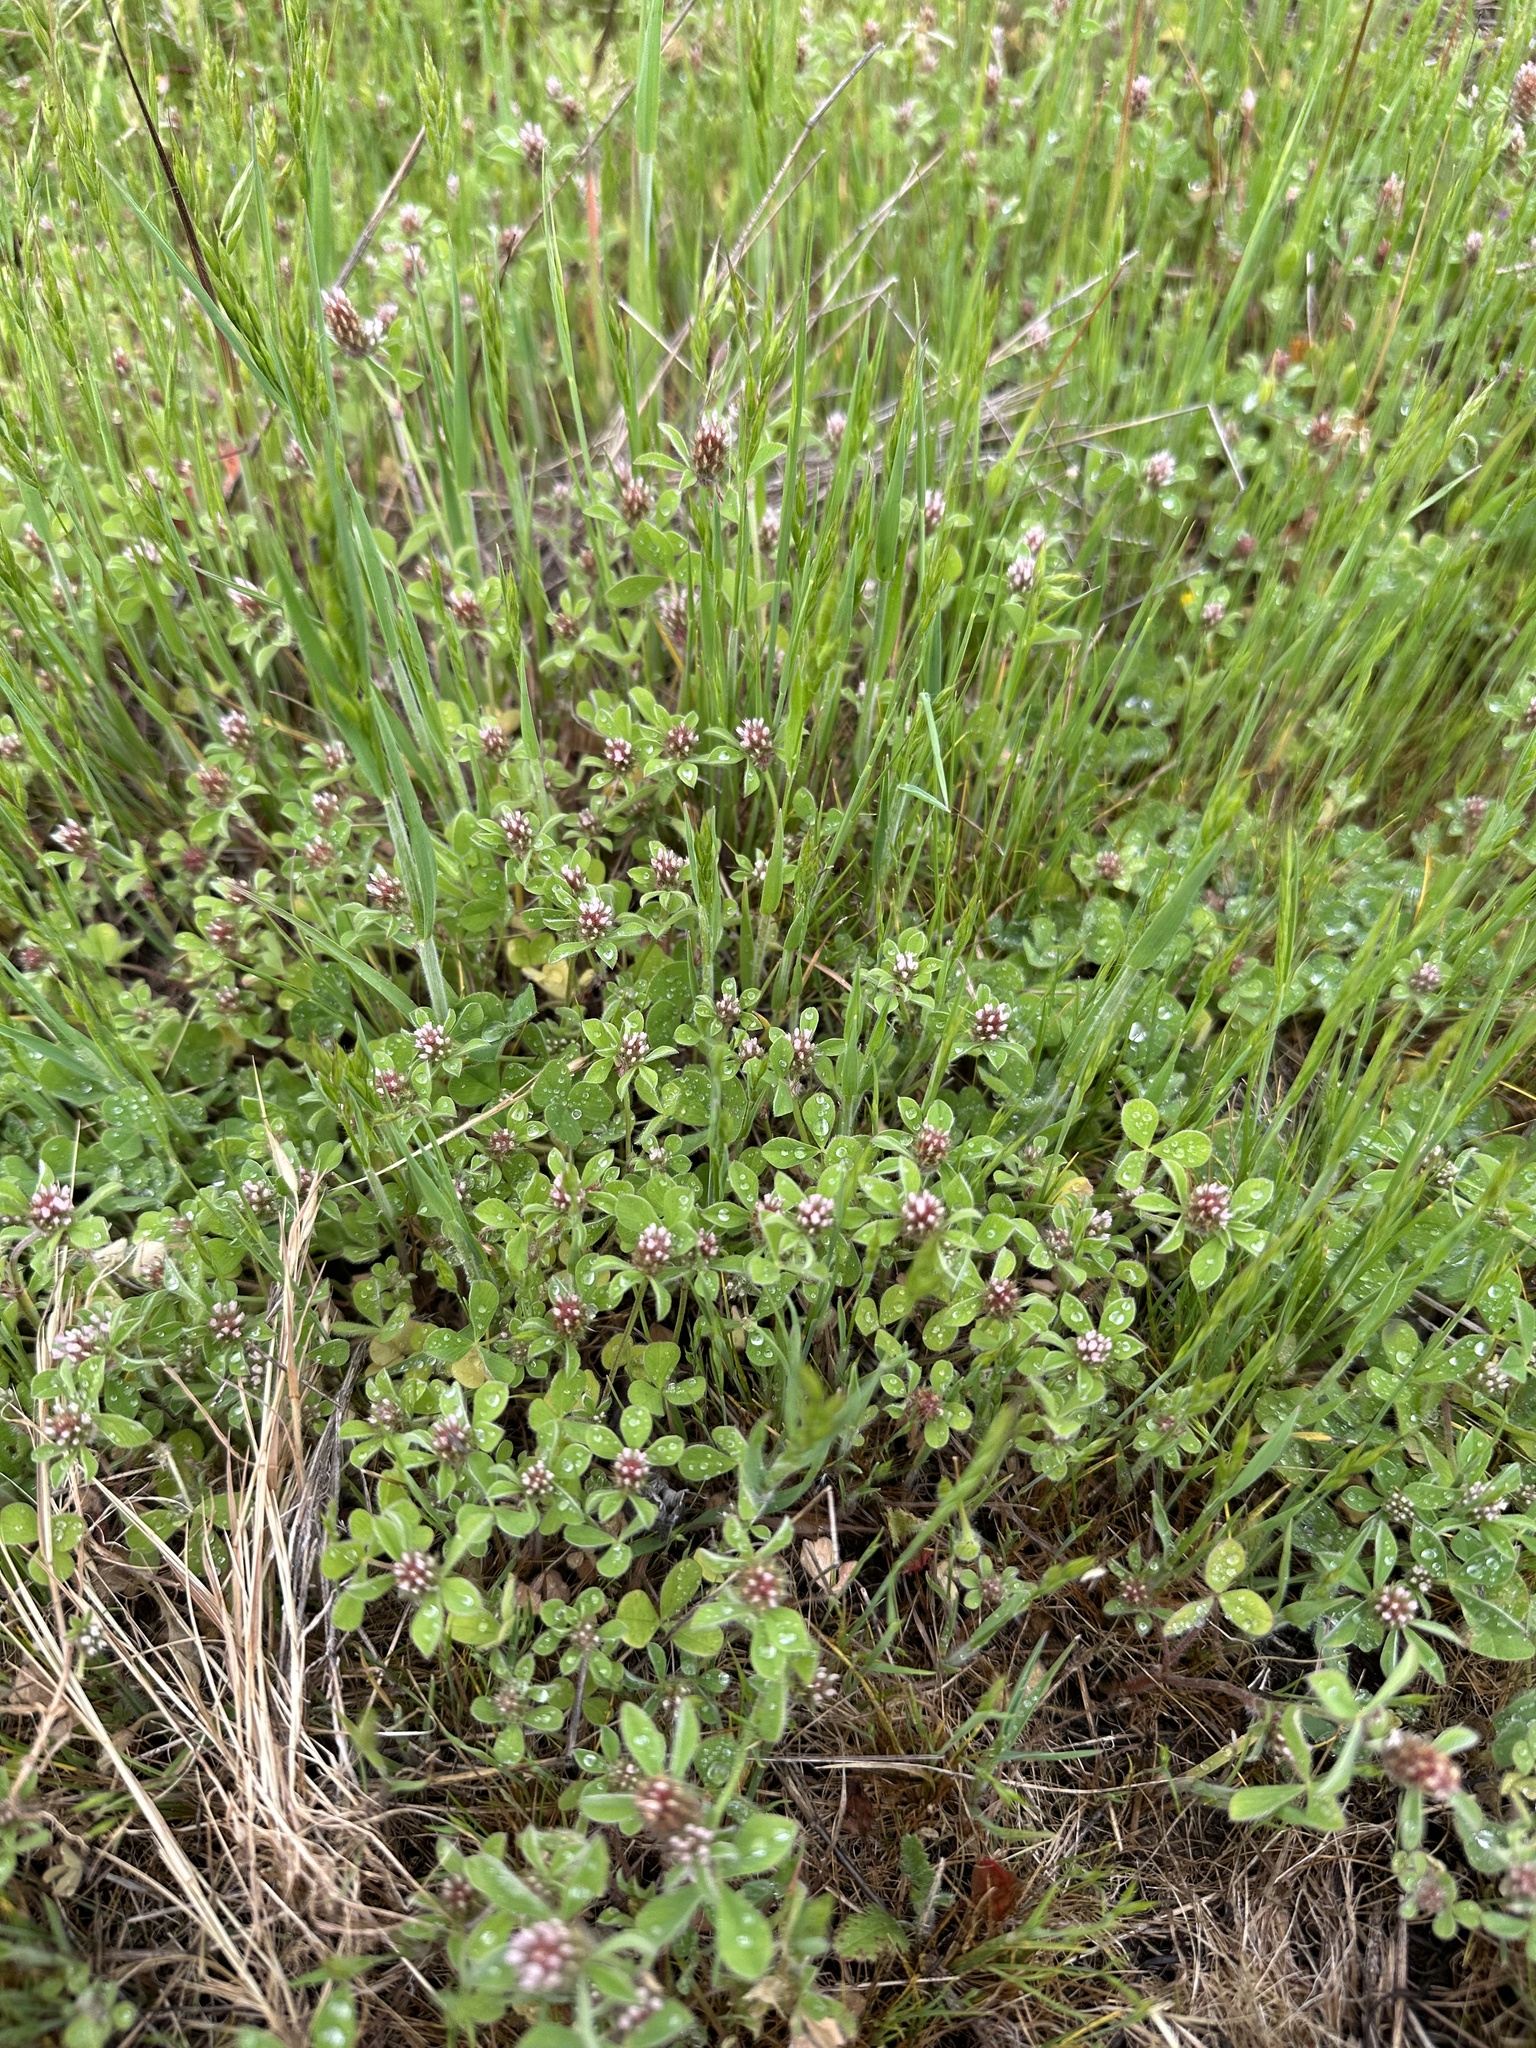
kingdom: Plantae
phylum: Tracheophyta
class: Magnoliopsida
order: Fabales
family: Fabaceae
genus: Trifolium
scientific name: Trifolium striatum
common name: Knotted clover
